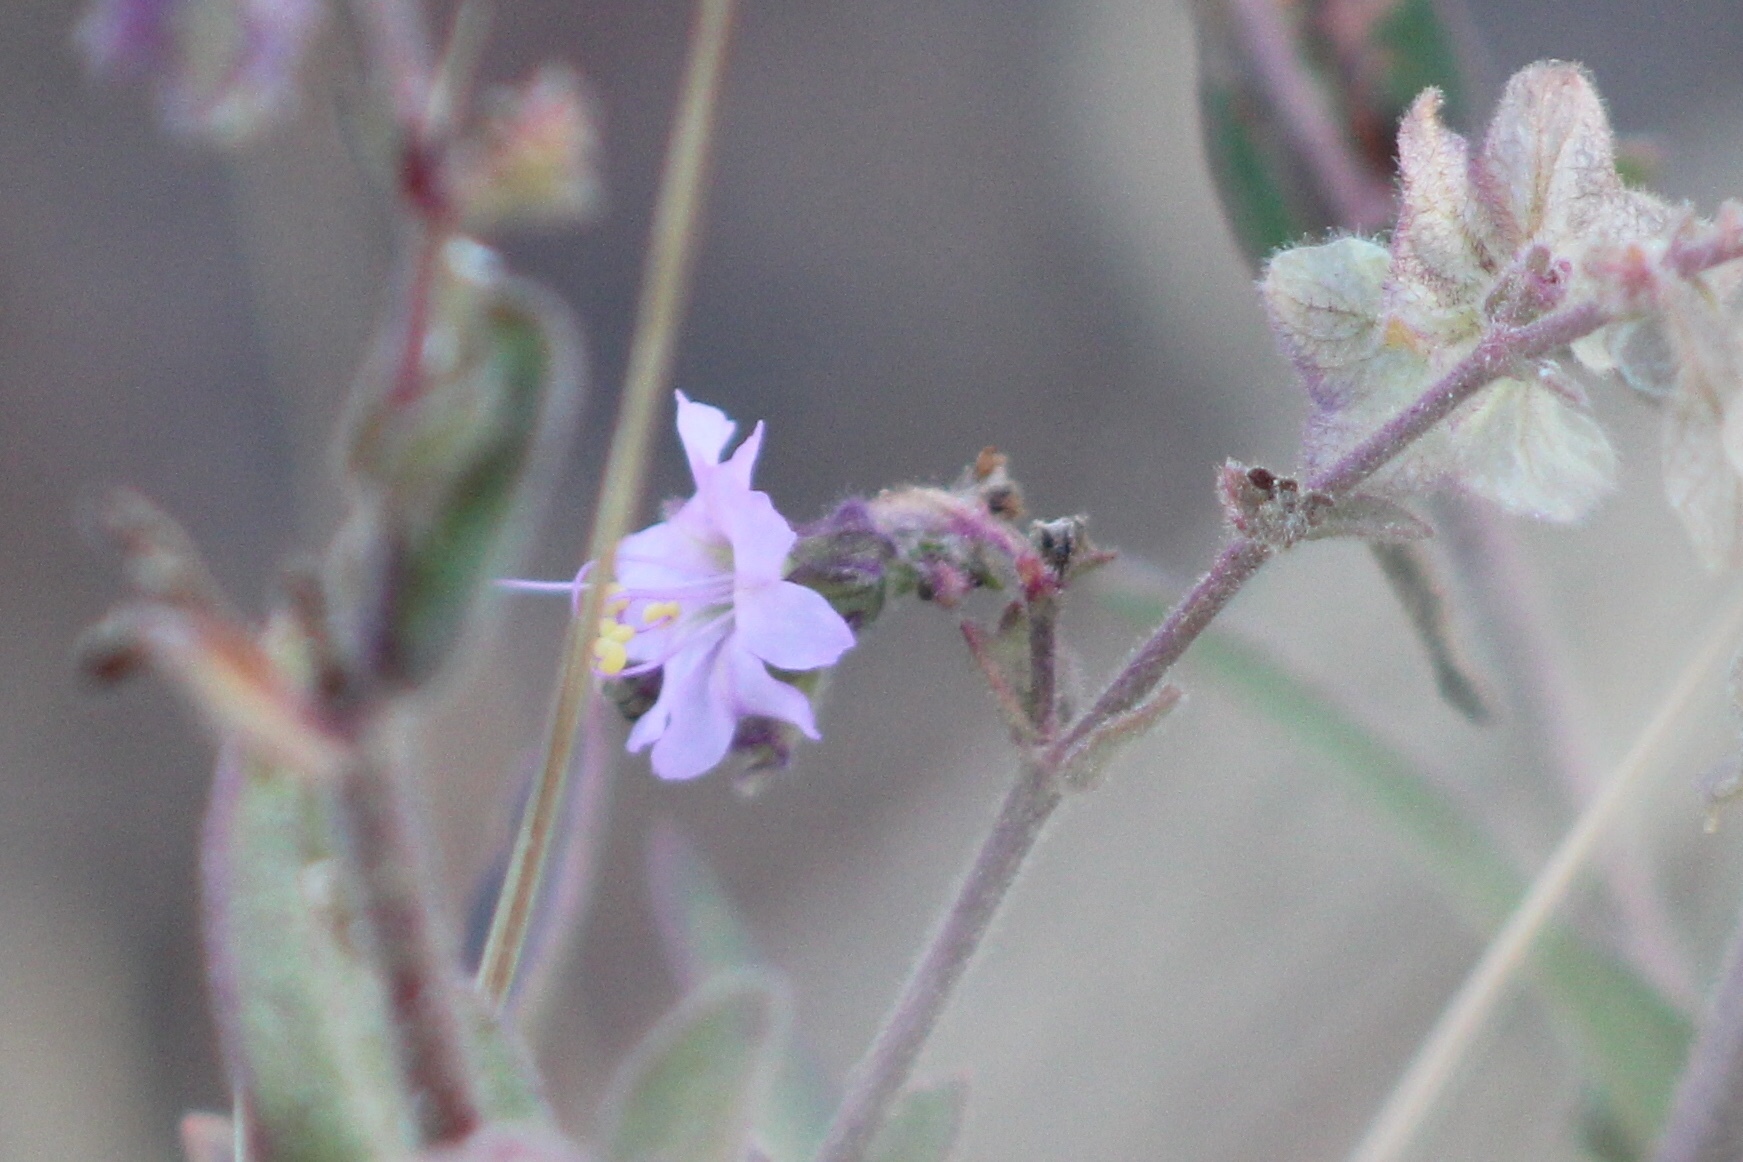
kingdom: Plantae
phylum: Tracheophyta
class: Magnoliopsida
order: Caryophyllales
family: Nyctaginaceae
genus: Mirabilis
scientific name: Mirabilis hirsuta
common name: Hairy four-o'clock
